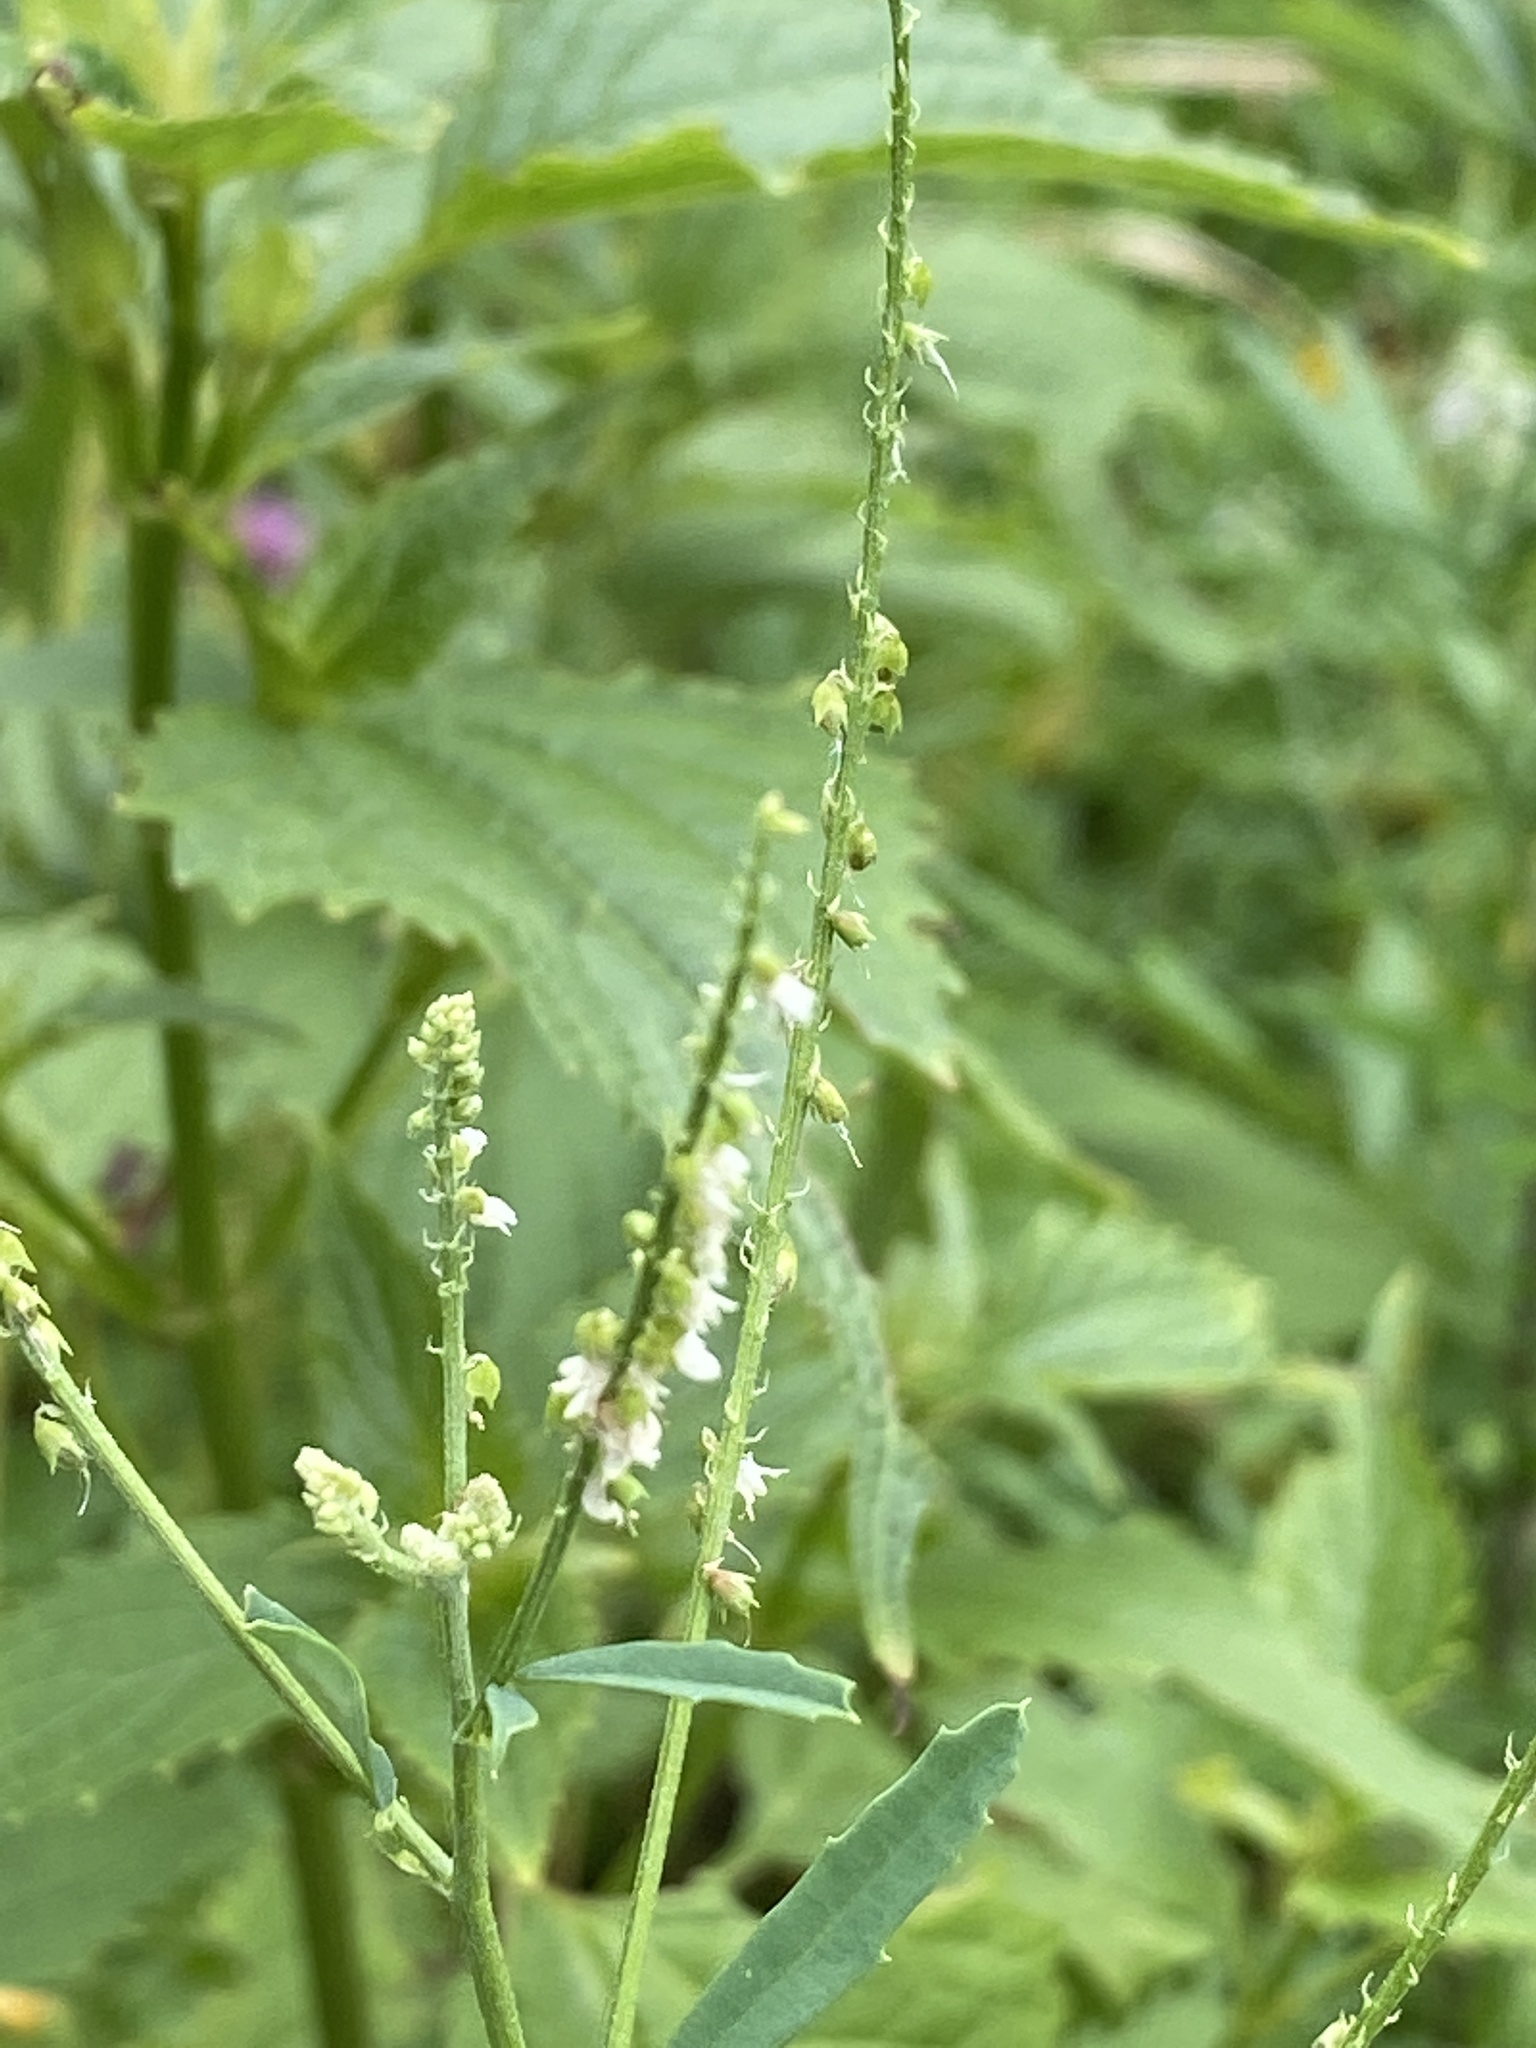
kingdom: Plantae
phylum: Tracheophyta
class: Magnoliopsida
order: Fabales
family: Fabaceae
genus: Melilotus
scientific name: Melilotus albus
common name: White melilot
